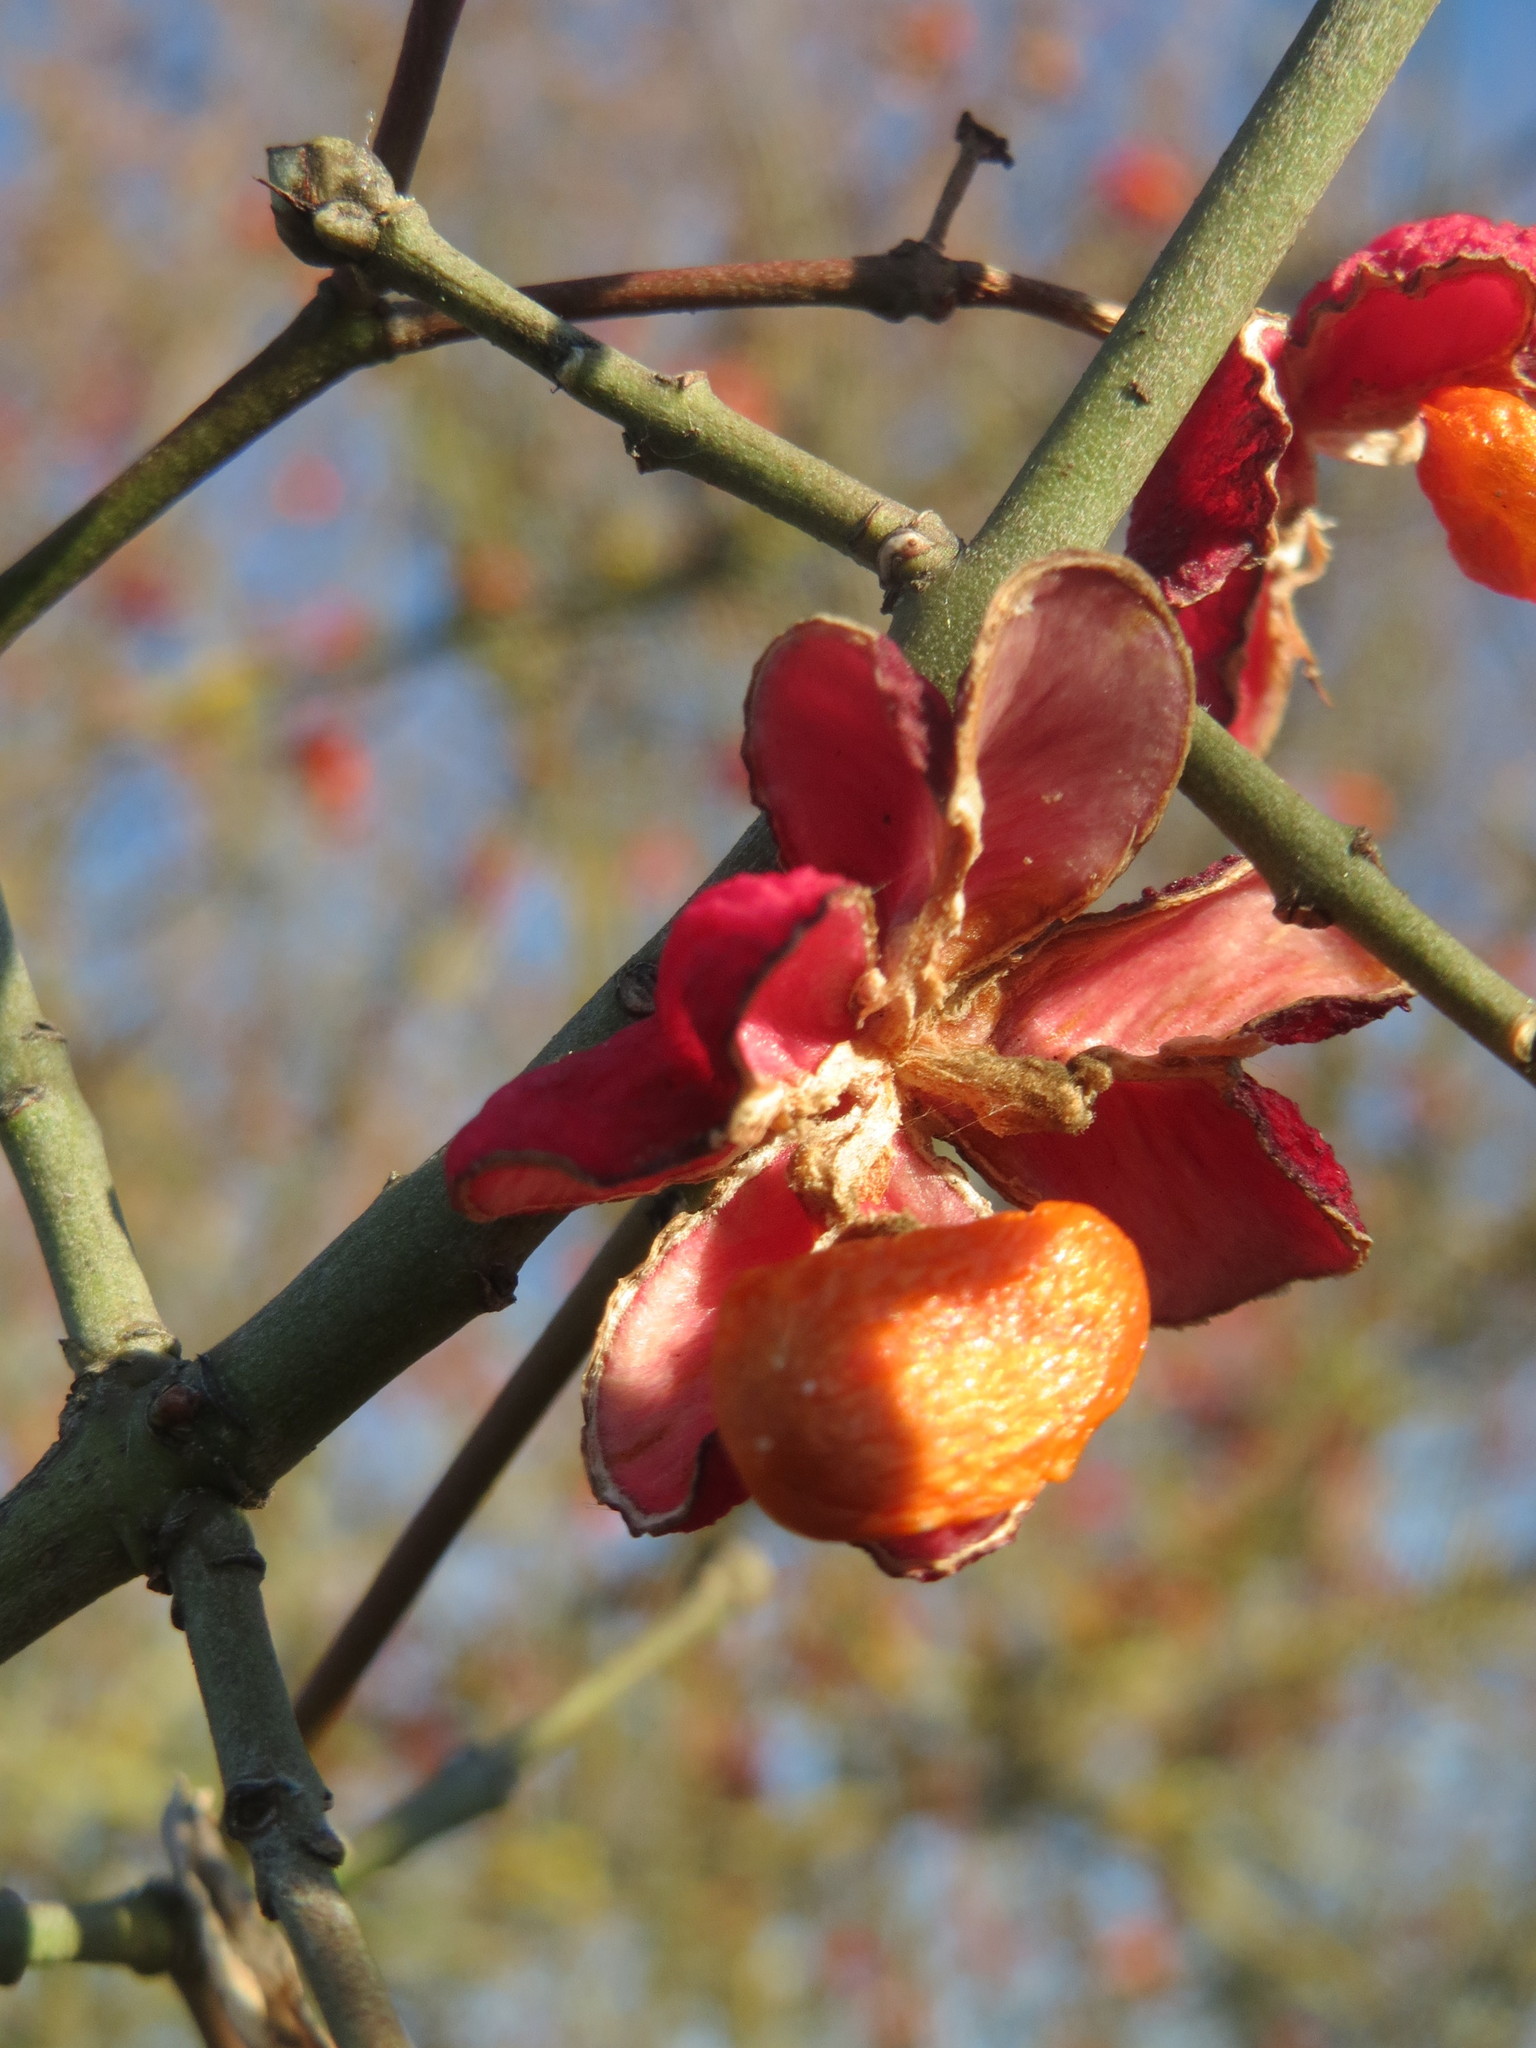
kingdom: Plantae
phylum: Tracheophyta
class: Magnoliopsida
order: Celastrales
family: Celastraceae
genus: Euonymus
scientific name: Euonymus europaeus
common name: Spindle
